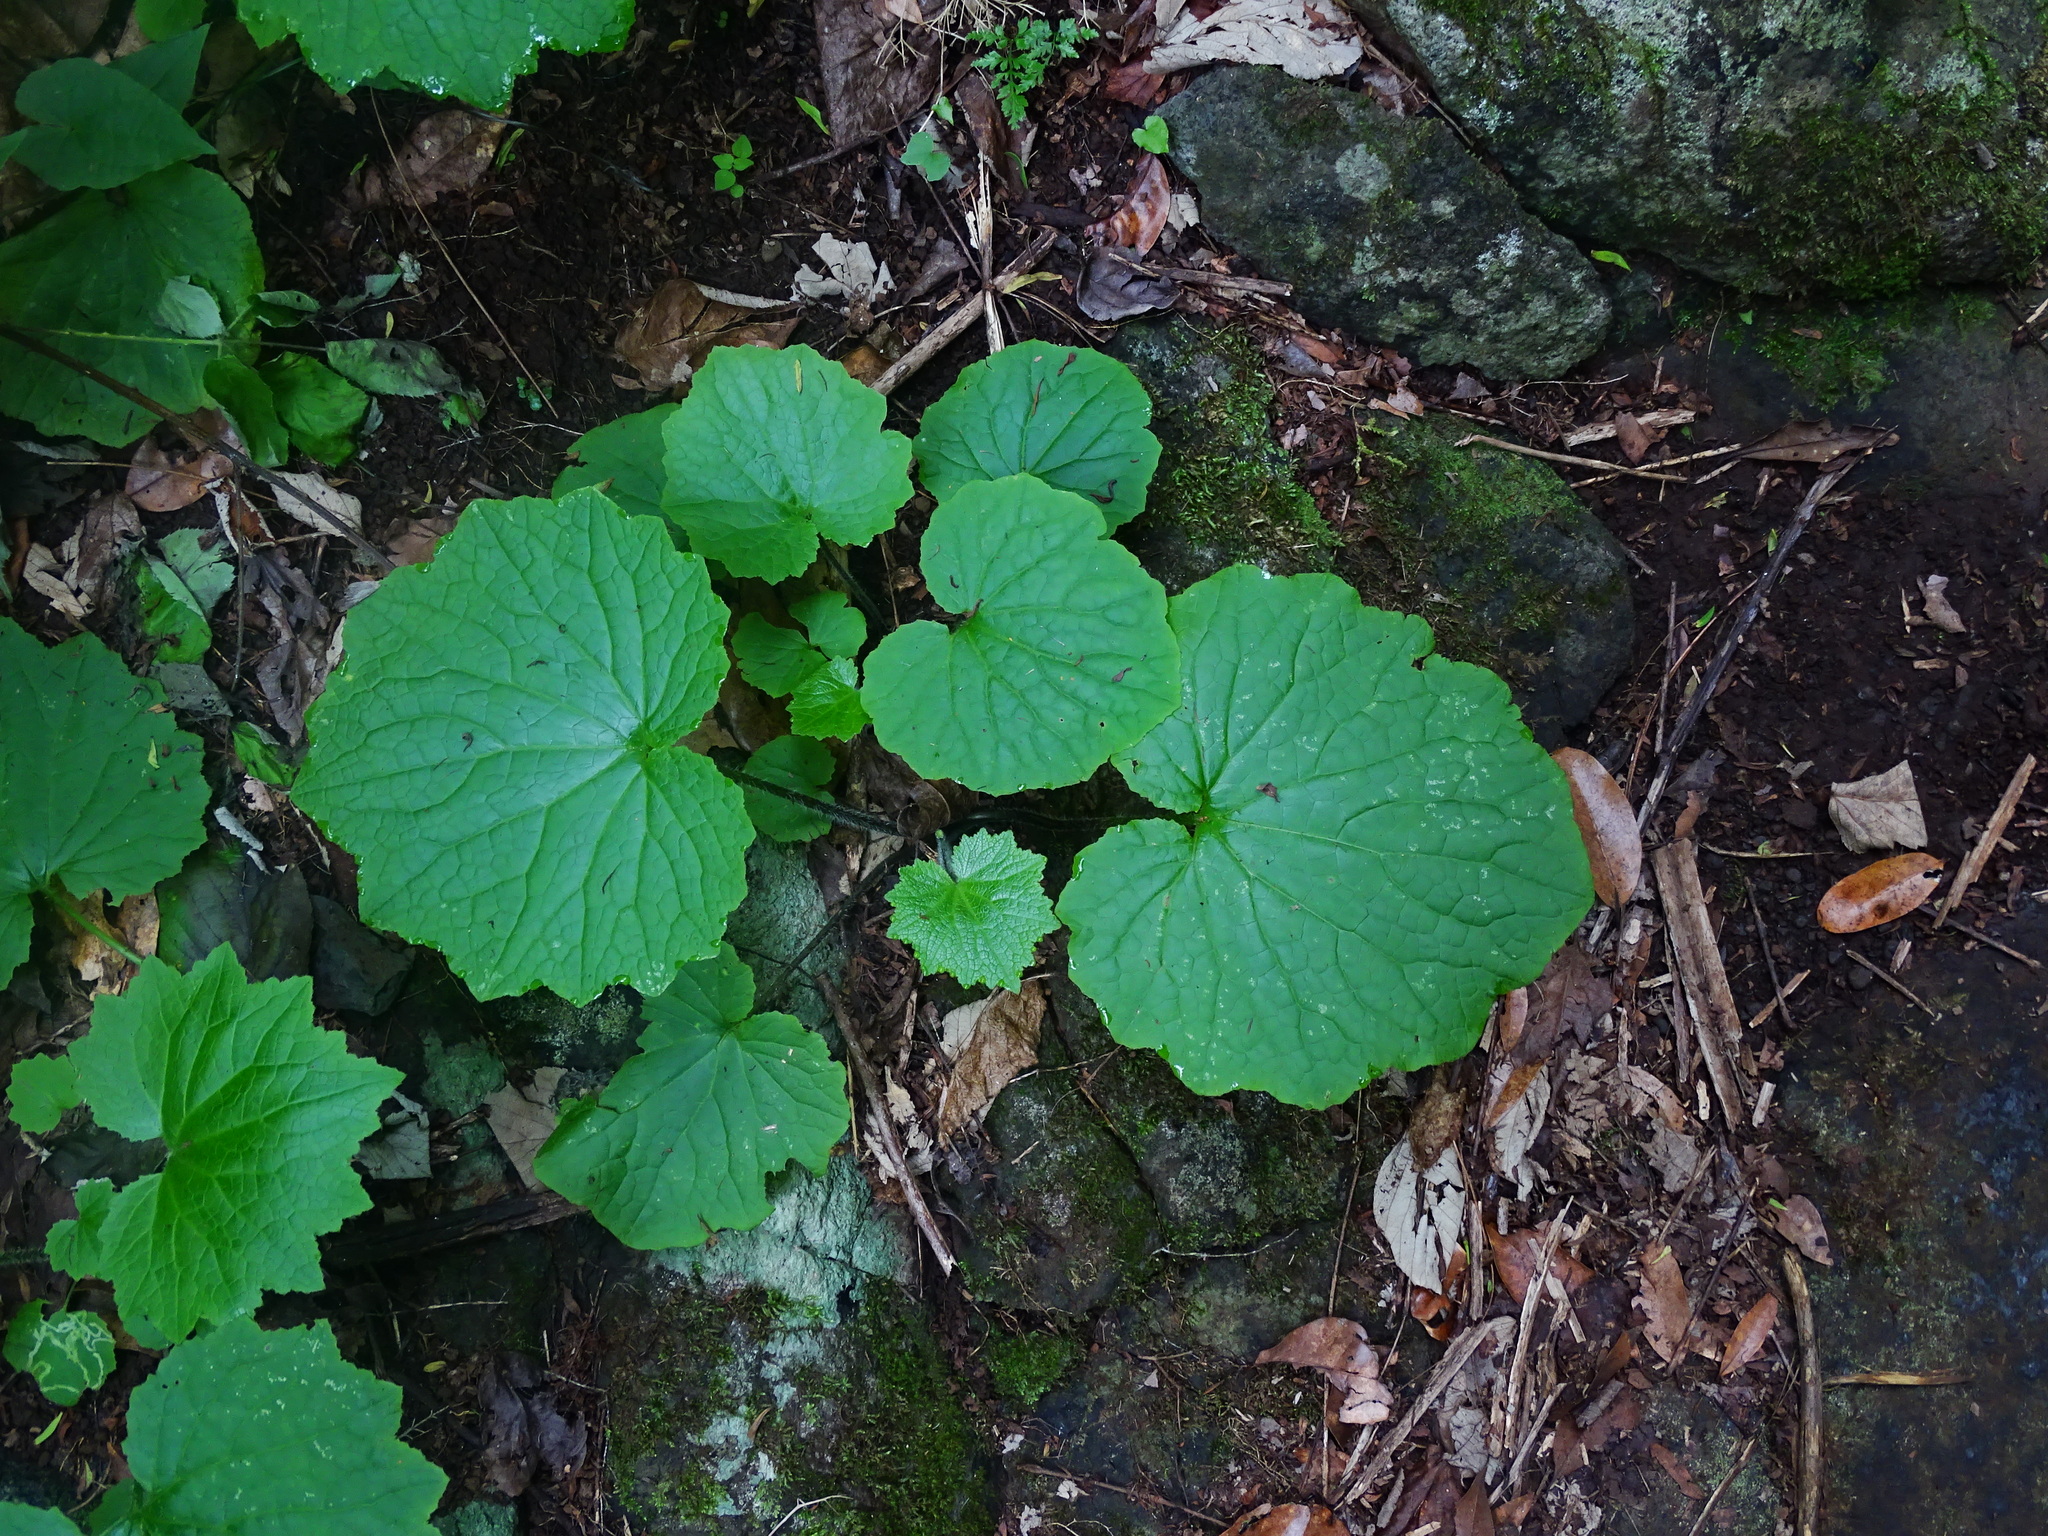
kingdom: Plantae
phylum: Tracheophyta
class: Magnoliopsida
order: Asterales
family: Asteraceae
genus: Pericallis
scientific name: Pericallis papyracea
